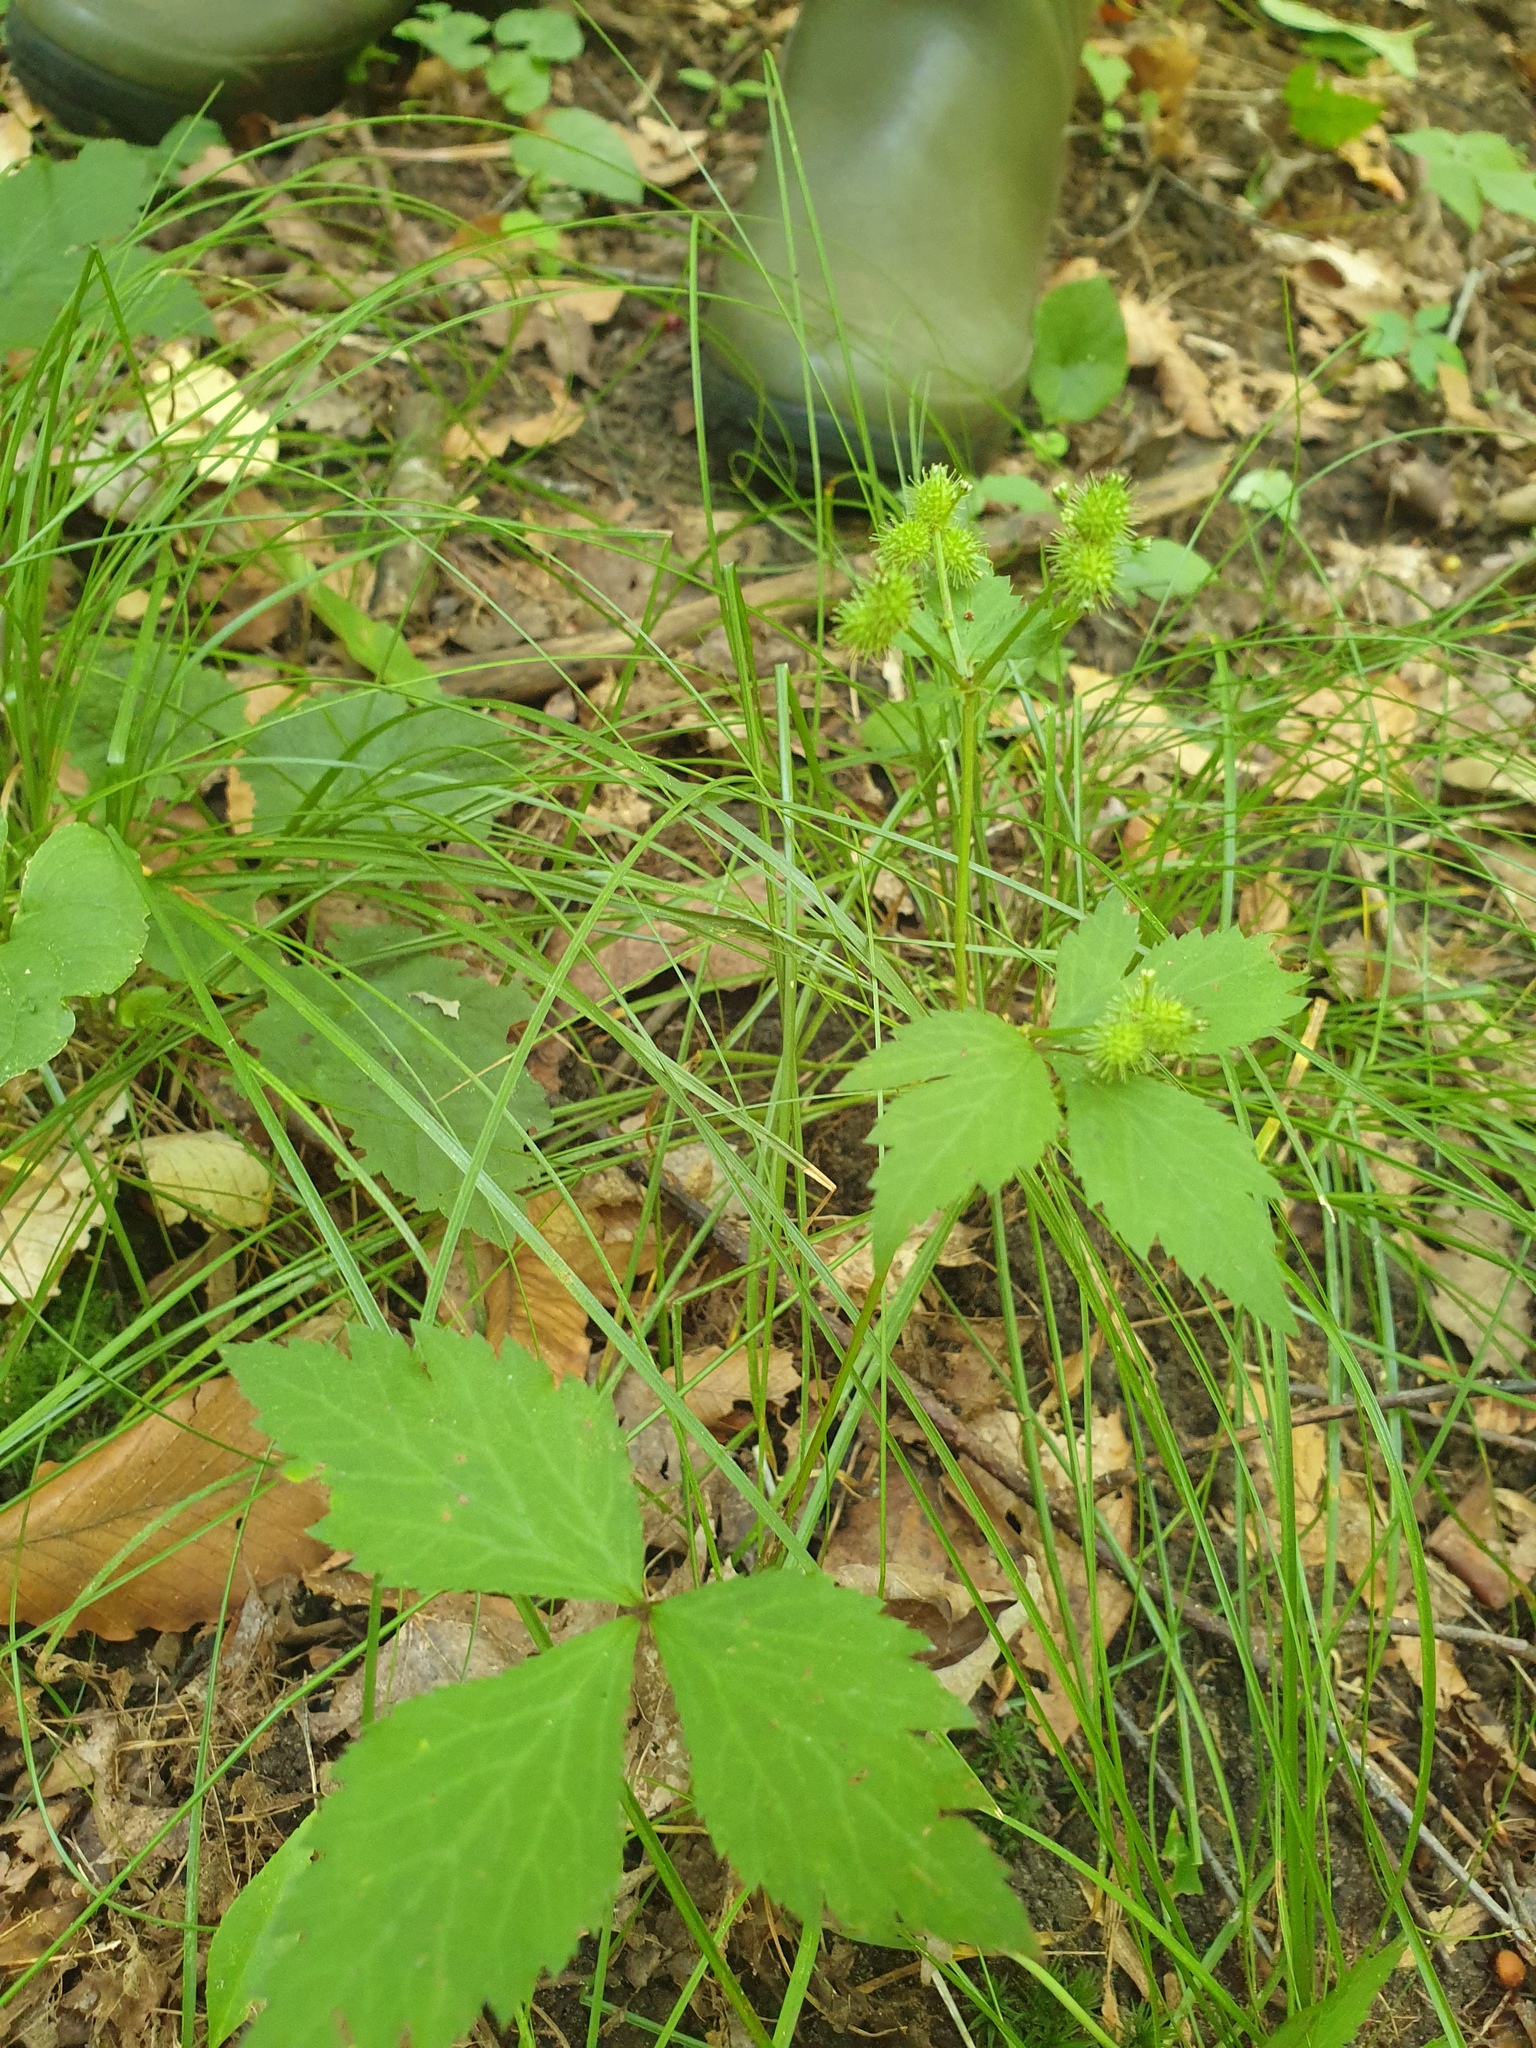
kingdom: Plantae
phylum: Tracheophyta
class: Magnoliopsida
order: Apiales
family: Apiaceae
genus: Sanicula
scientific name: Sanicula trifoliata
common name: Beaked sanicle
